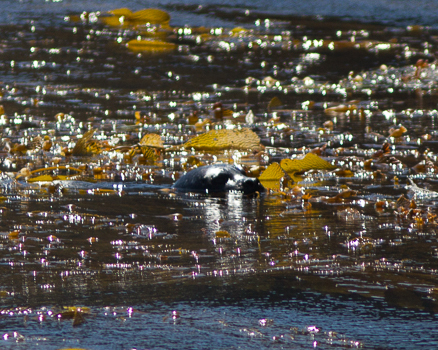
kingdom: Animalia
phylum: Chordata
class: Mammalia
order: Carnivora
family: Phocidae
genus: Phoca
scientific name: Phoca vitulina
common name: Harbor seal
